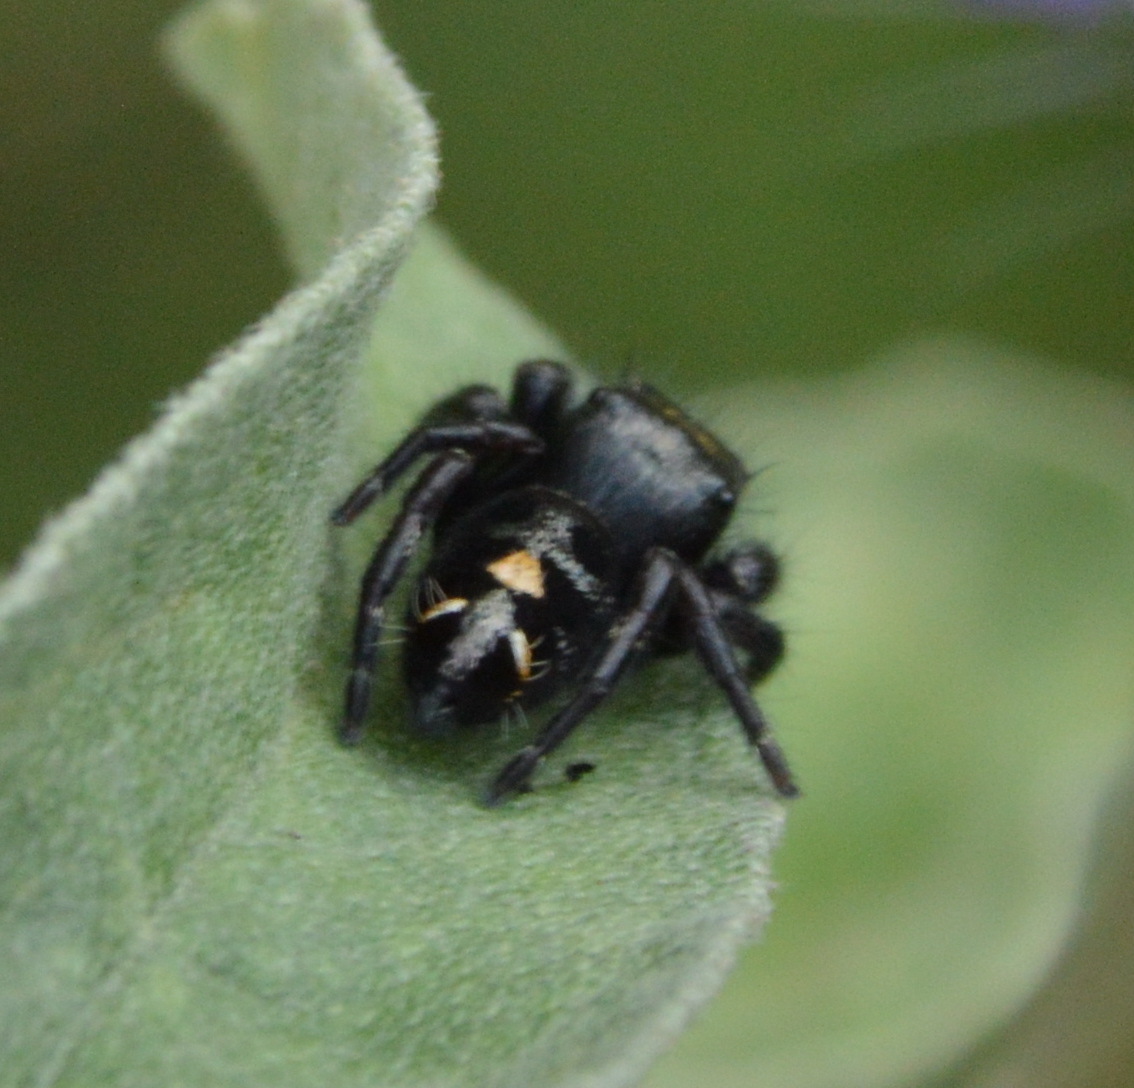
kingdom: Animalia
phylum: Arthropoda
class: Arachnida
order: Araneae
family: Salticidae
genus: Phidippus
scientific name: Phidippus audax
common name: Bold jumper
